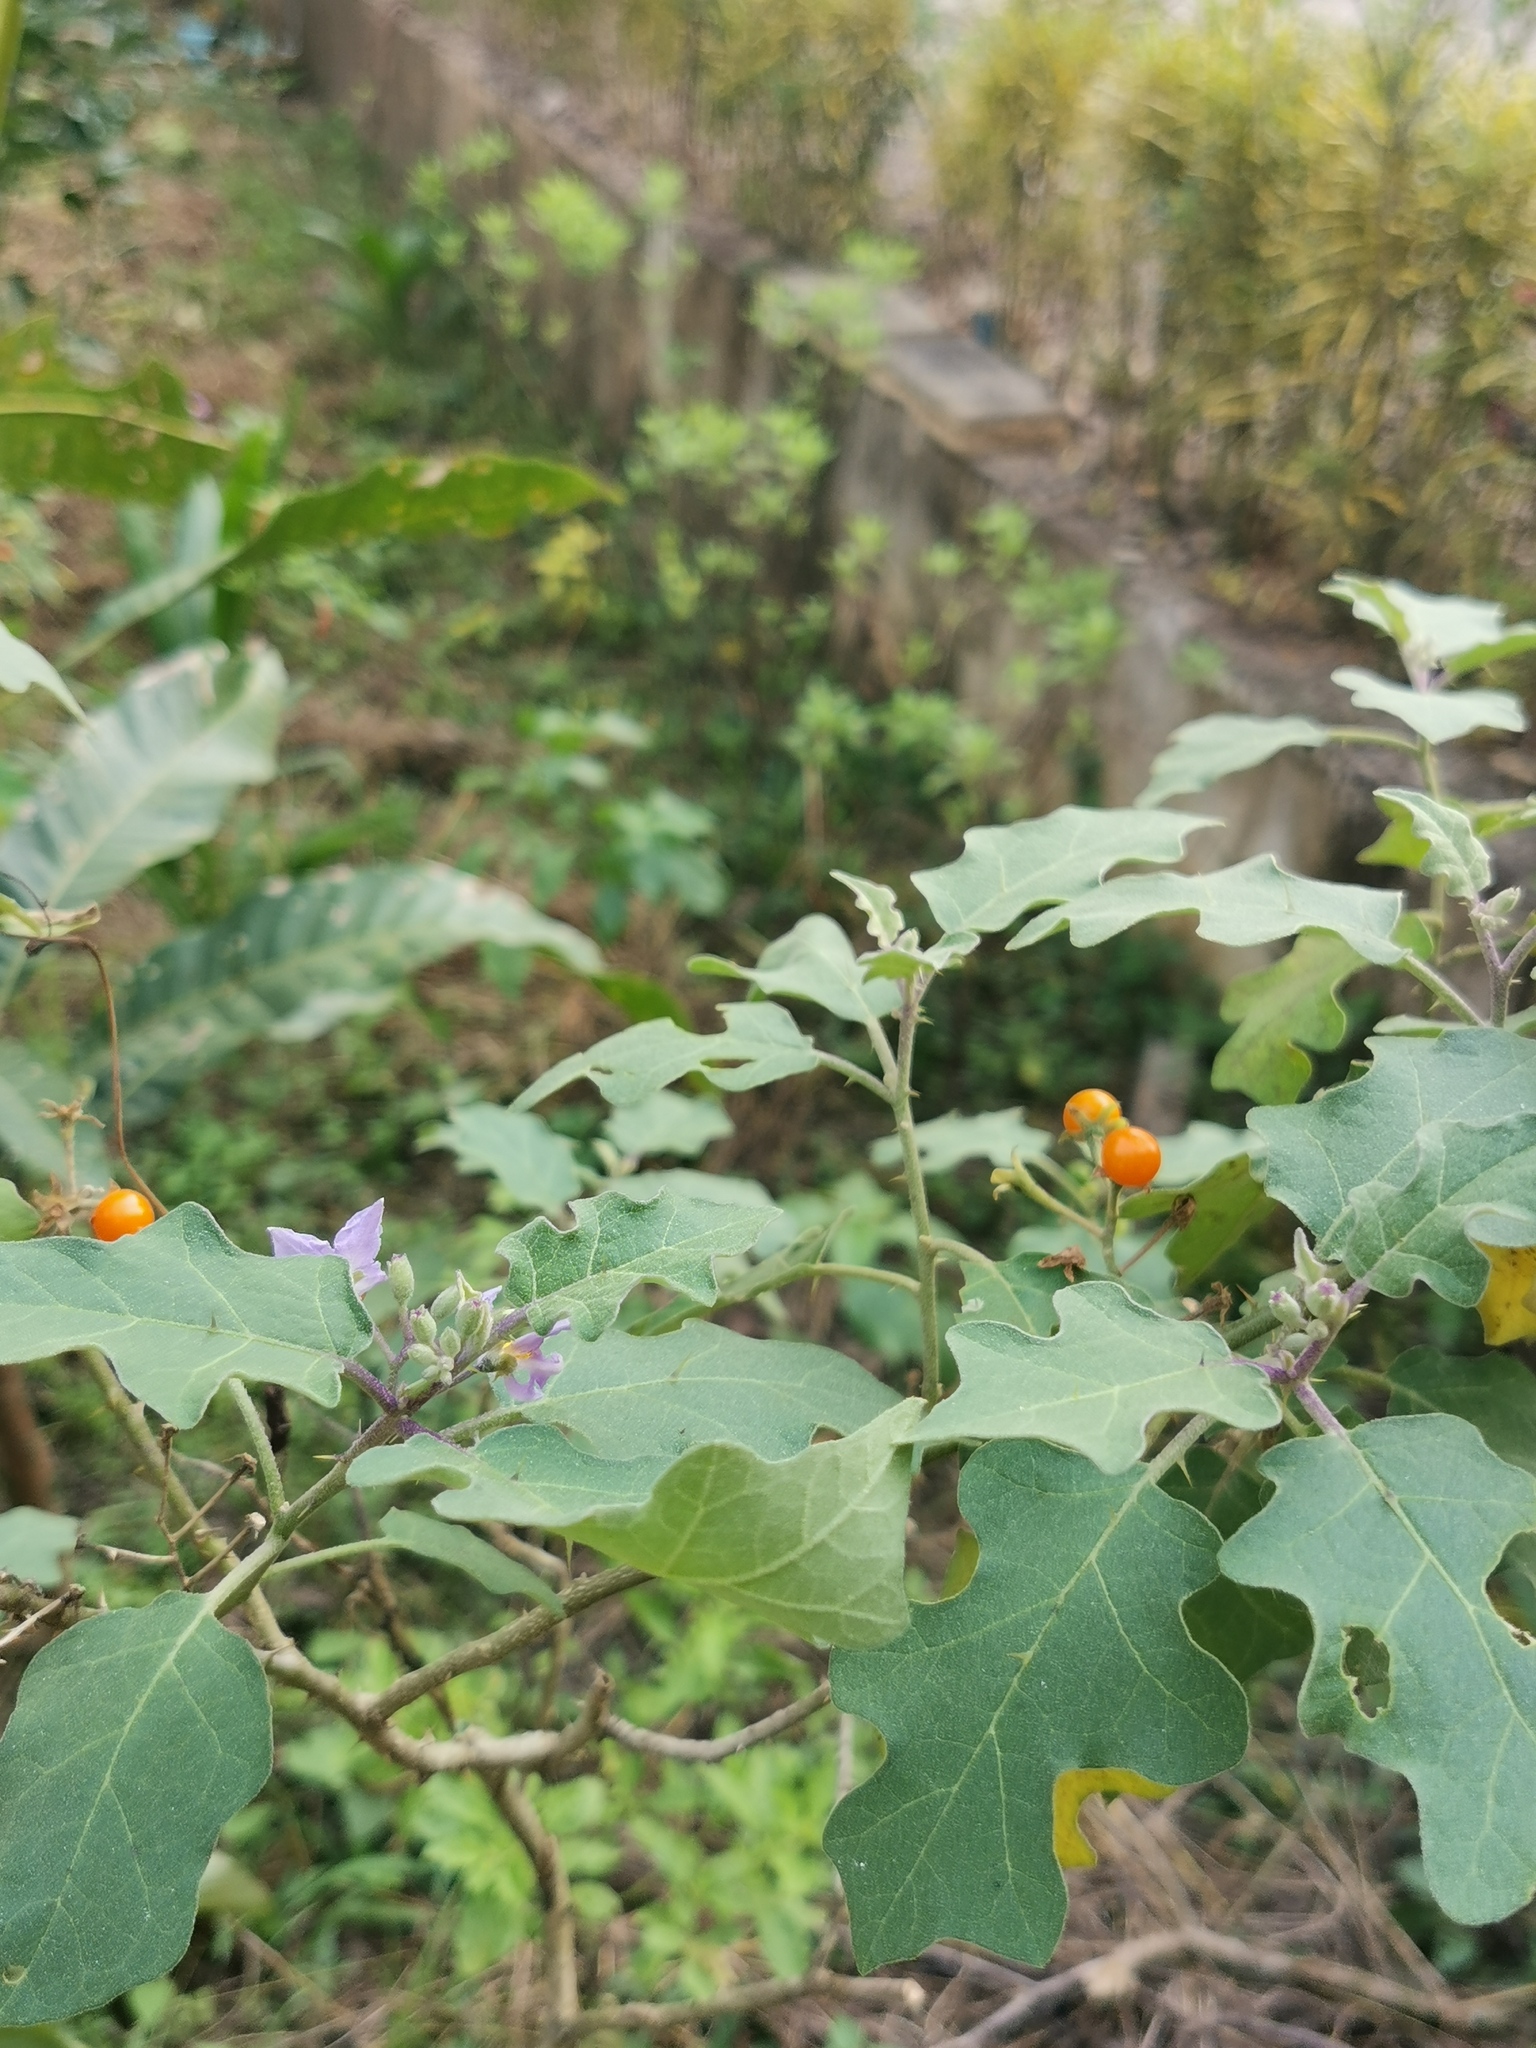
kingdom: Plantae
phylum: Tracheophyta
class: Magnoliopsida
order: Solanales
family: Solanaceae
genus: Solanum
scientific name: Solanum violaceum
